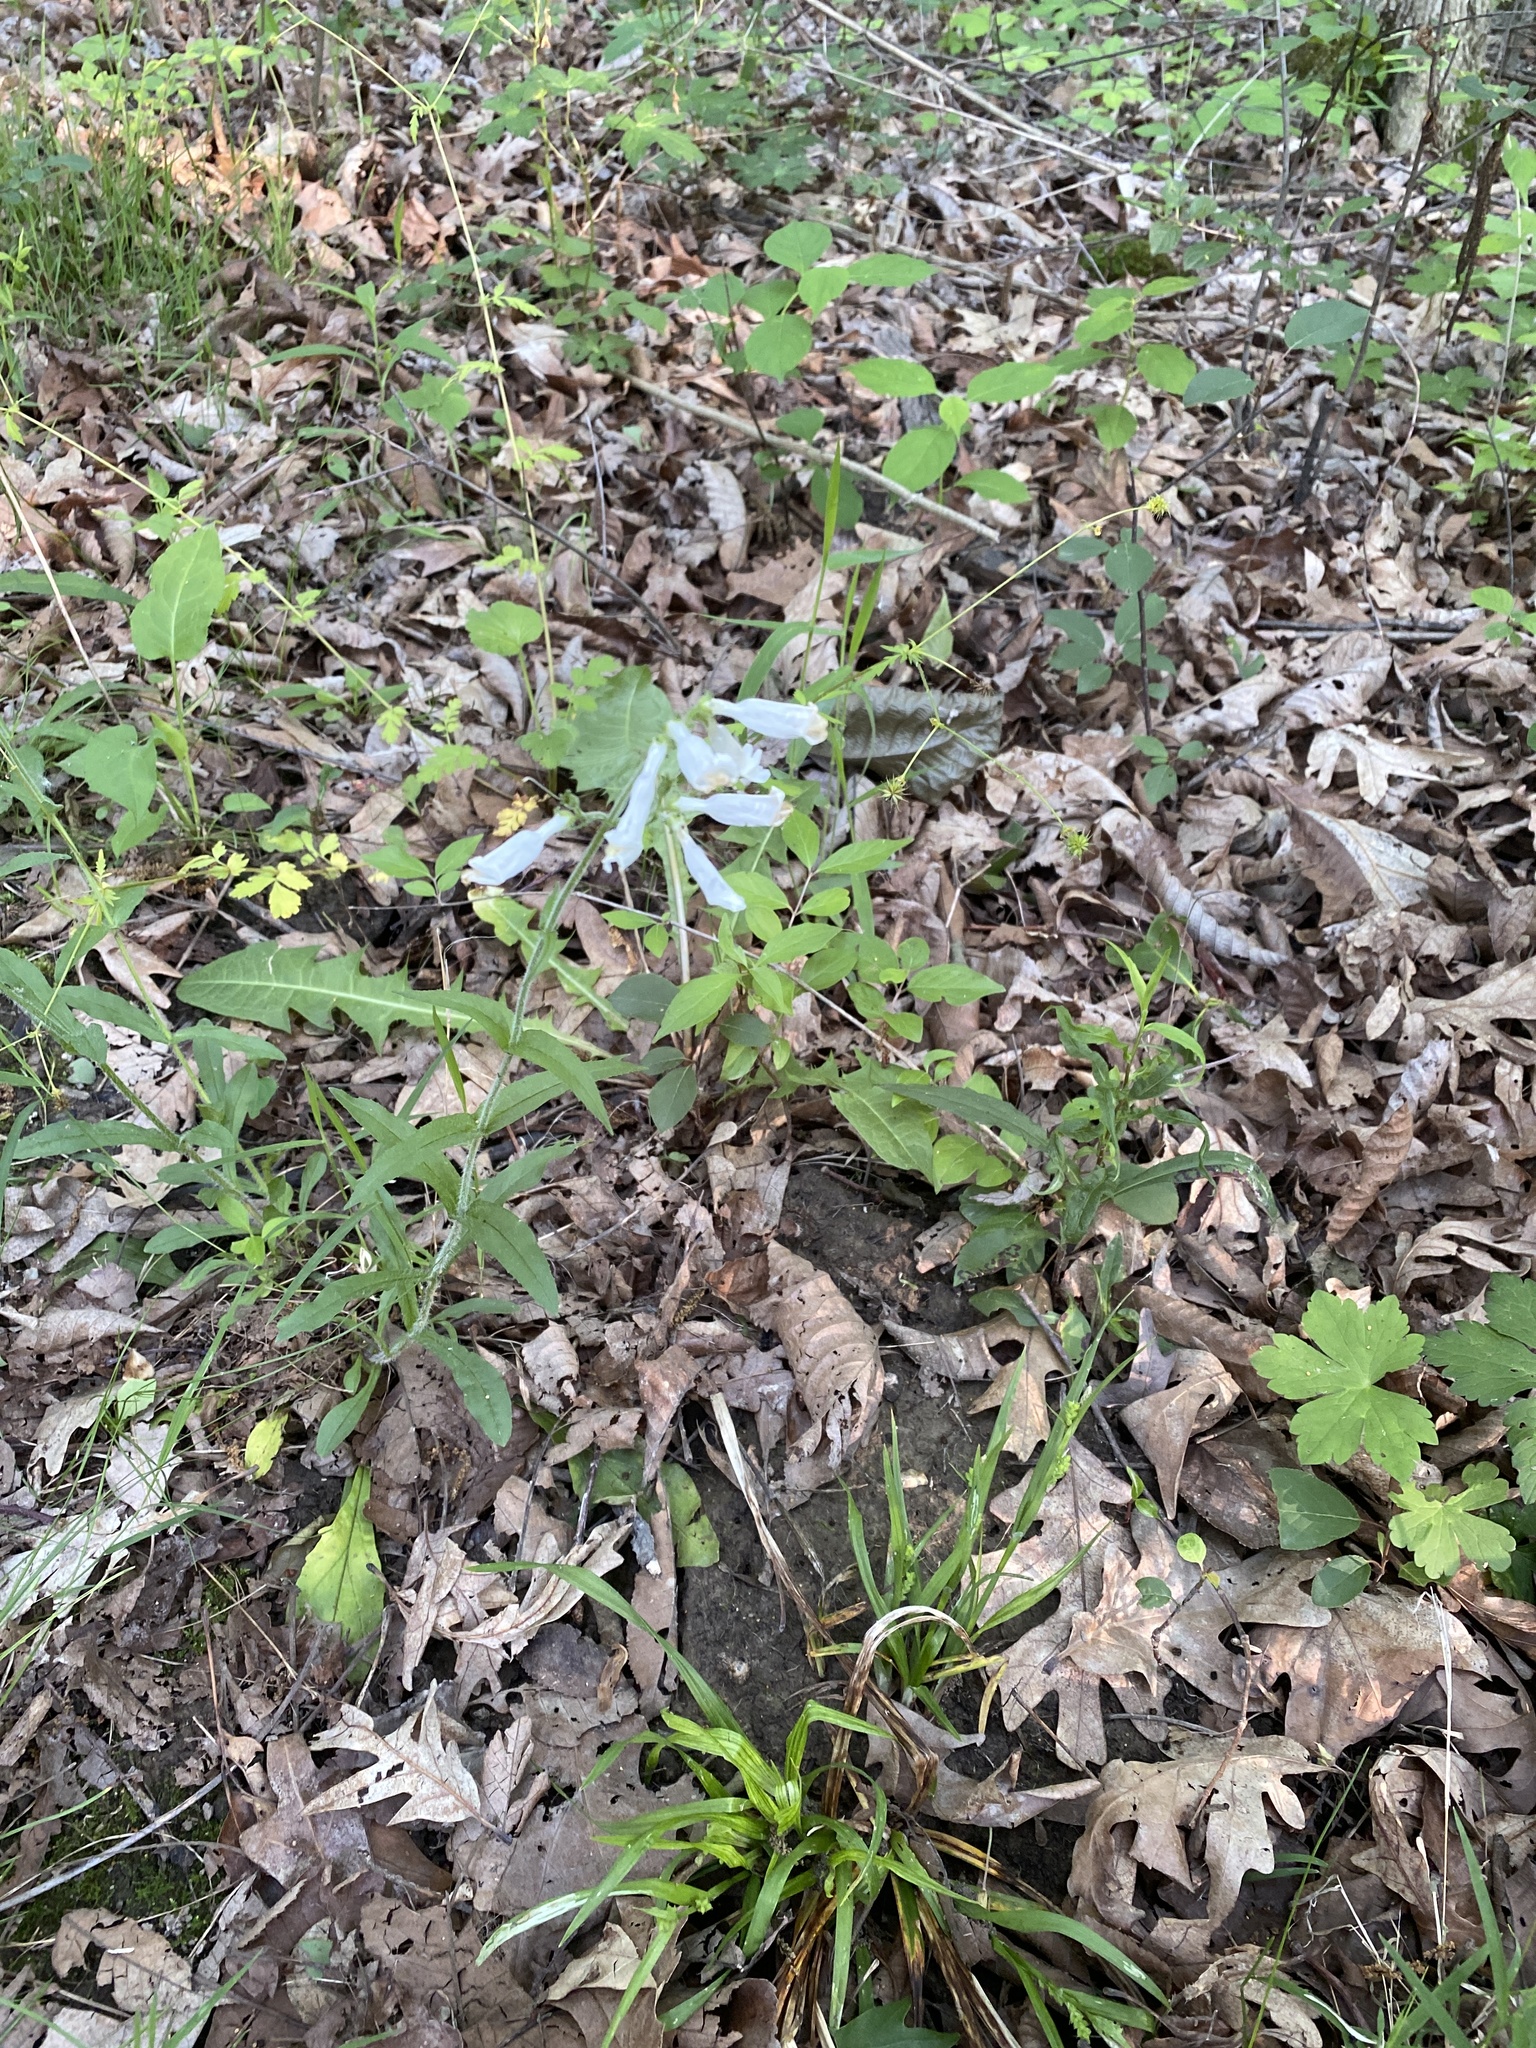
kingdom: Plantae
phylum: Tracheophyta
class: Magnoliopsida
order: Lamiales
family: Plantaginaceae
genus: Penstemon
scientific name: Penstemon hirsutus
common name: Hairy beardtongue
